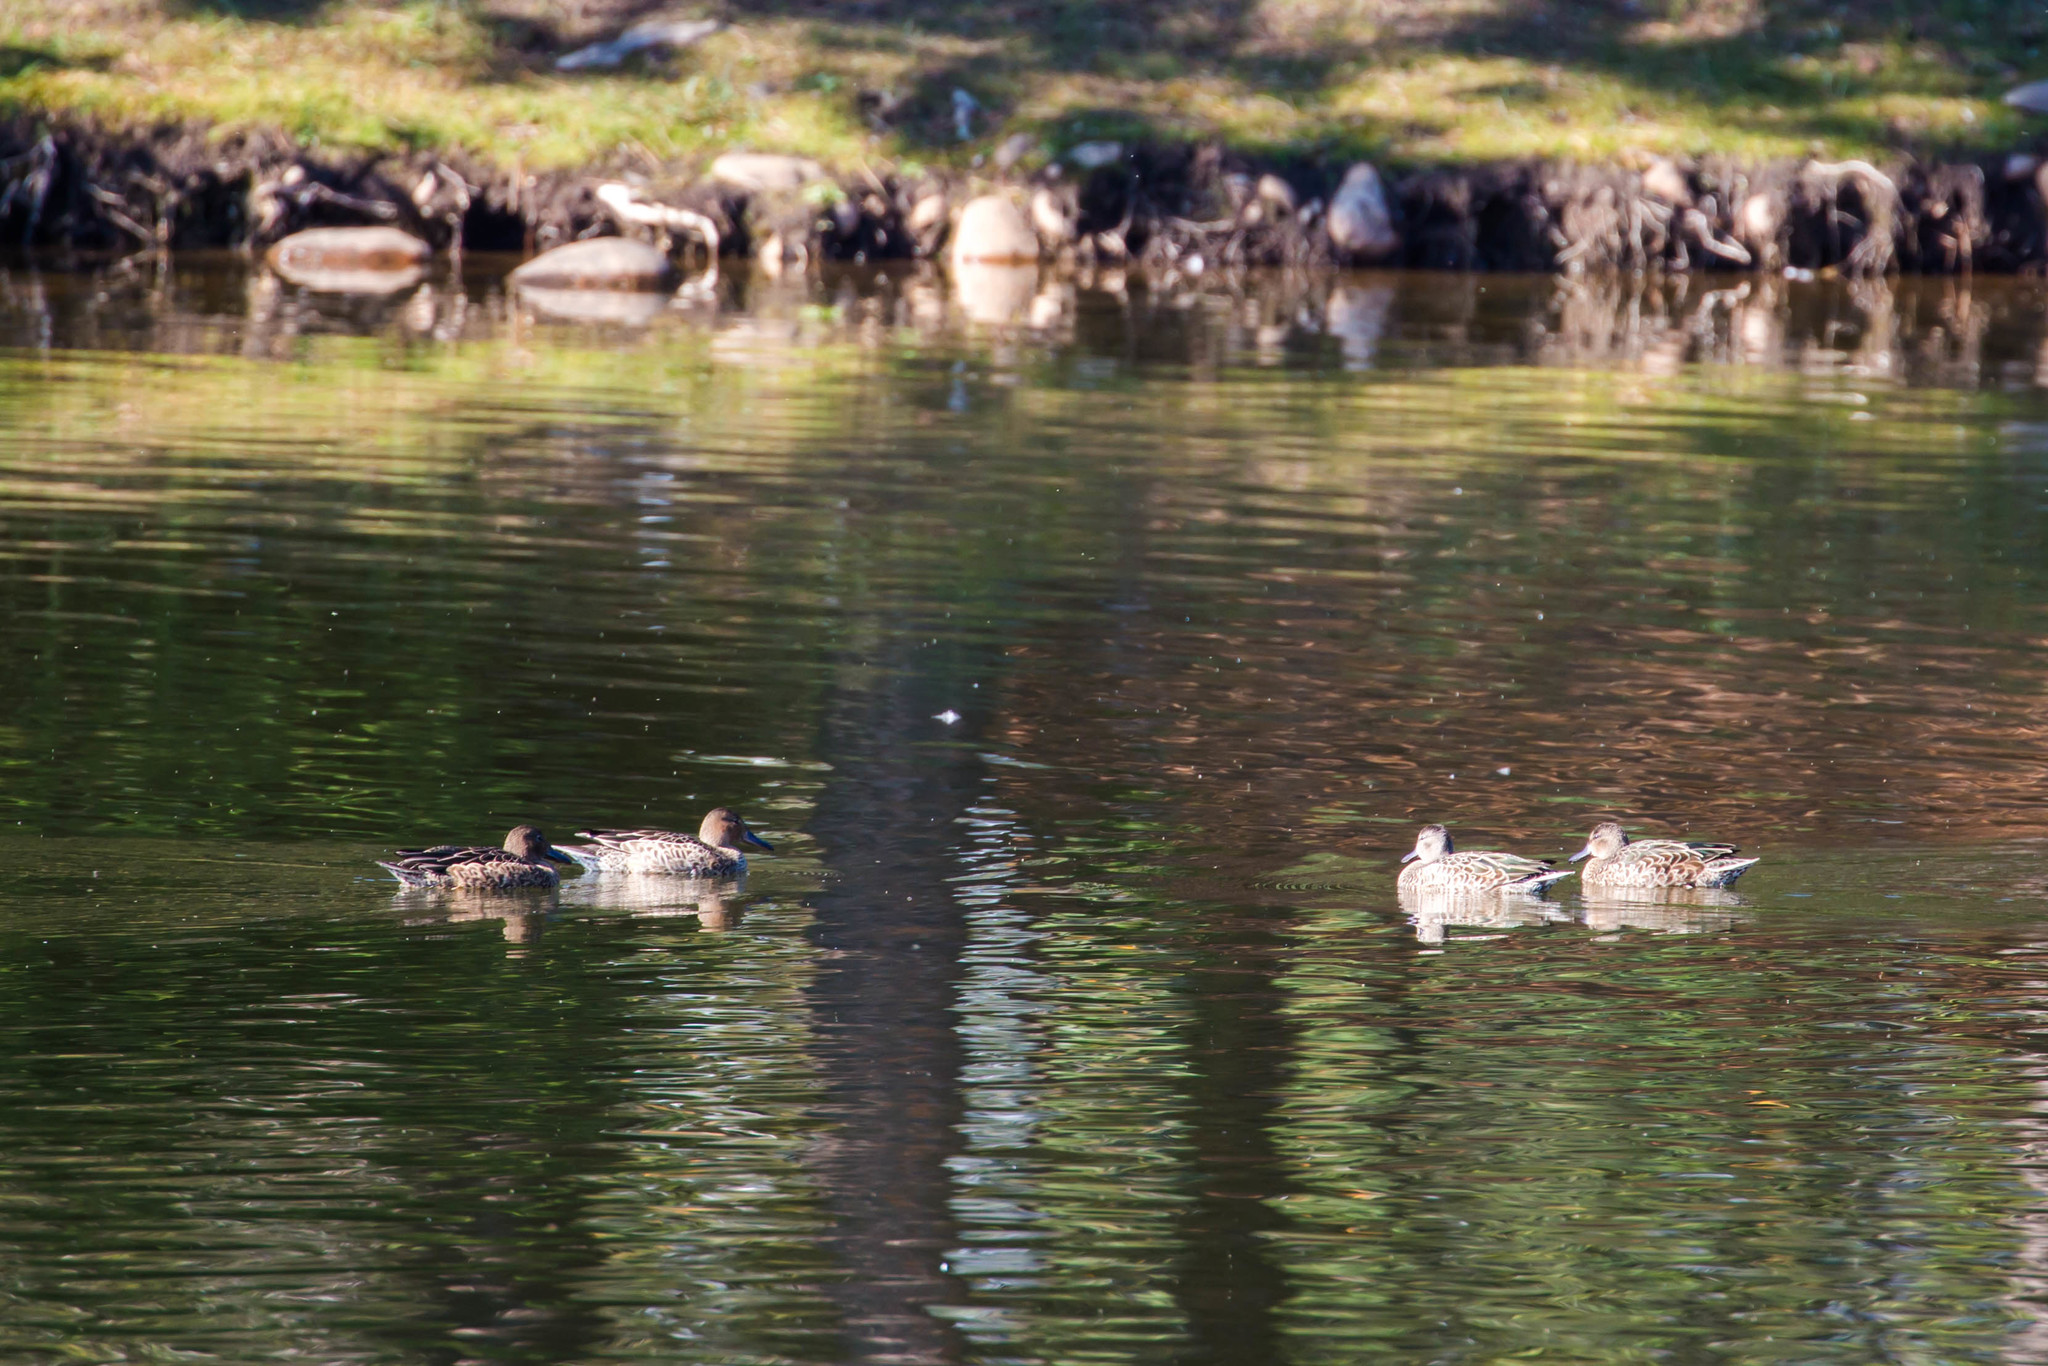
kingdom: Animalia
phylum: Chordata
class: Aves
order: Anseriformes
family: Anatidae
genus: Spatula
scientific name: Spatula discors
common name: Blue-winged teal
